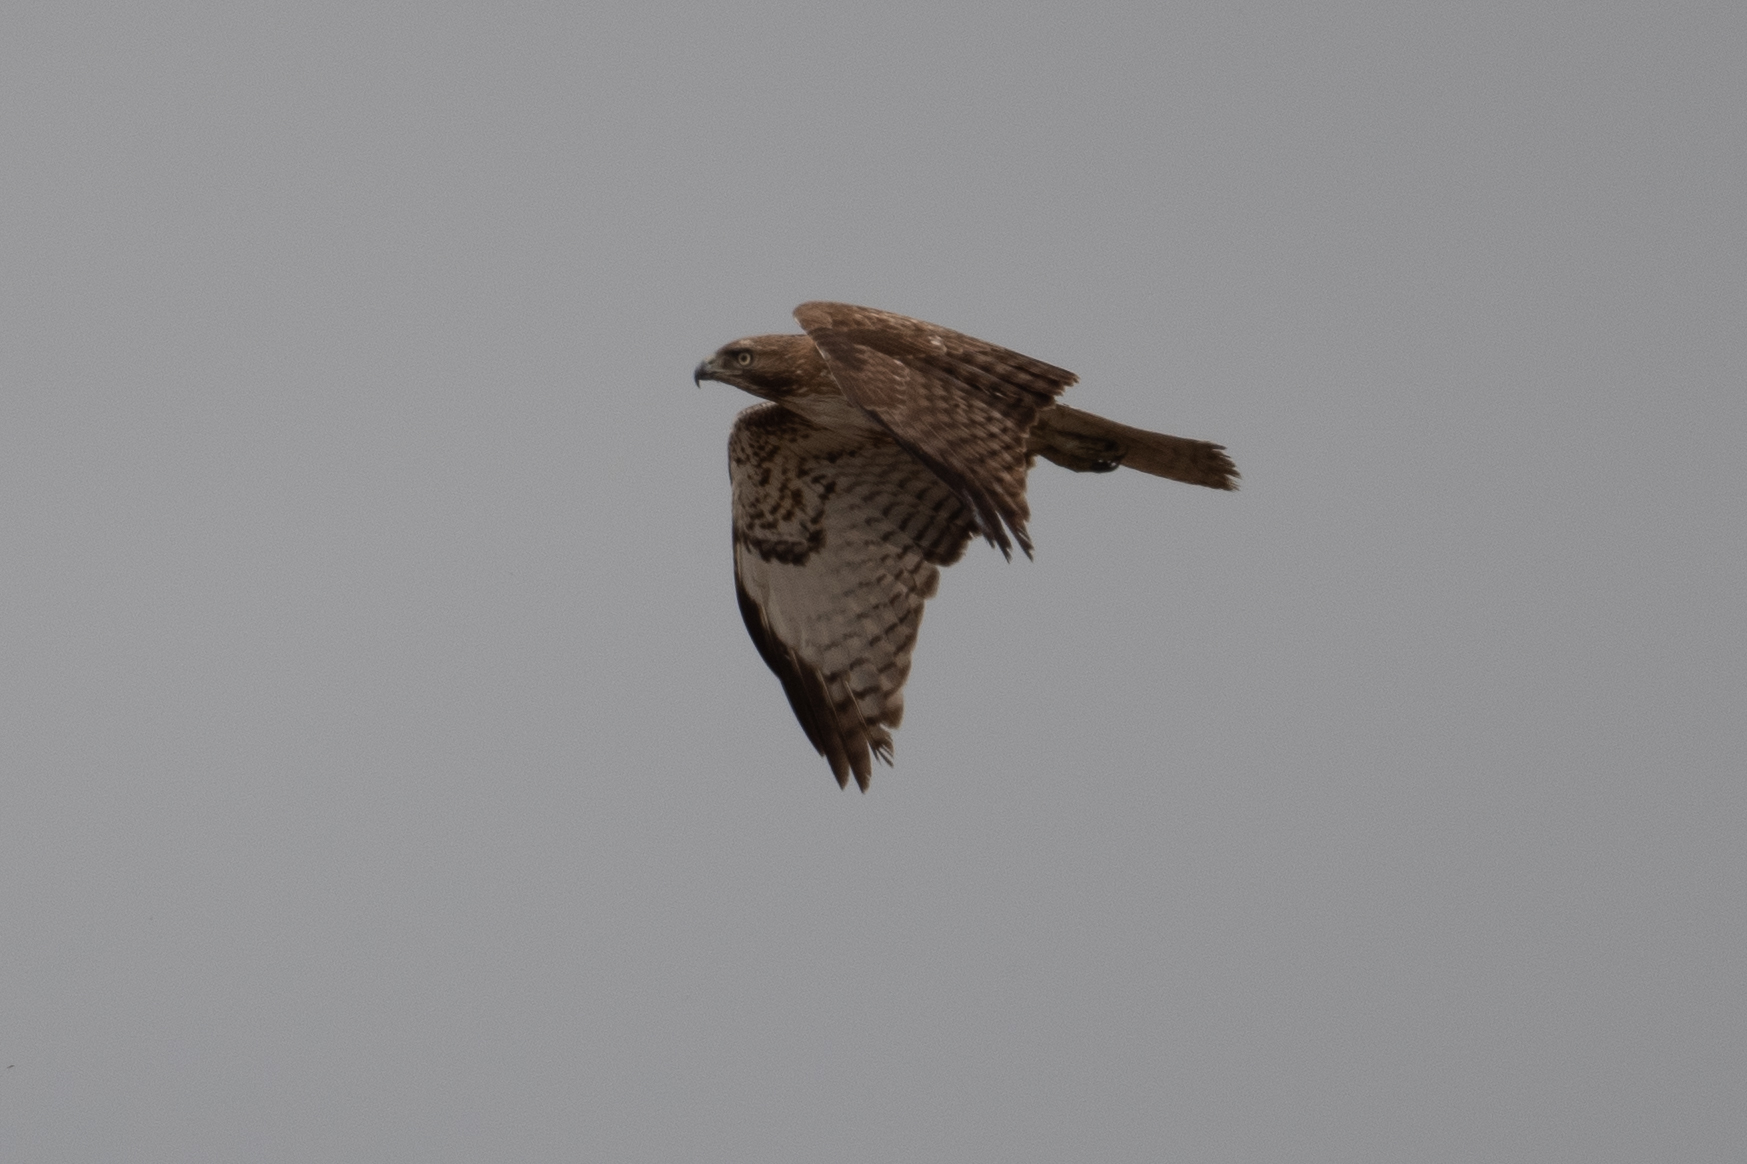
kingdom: Animalia
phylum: Chordata
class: Aves
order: Accipitriformes
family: Accipitridae
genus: Buteo
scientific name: Buteo jamaicensis
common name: Red-tailed hawk
